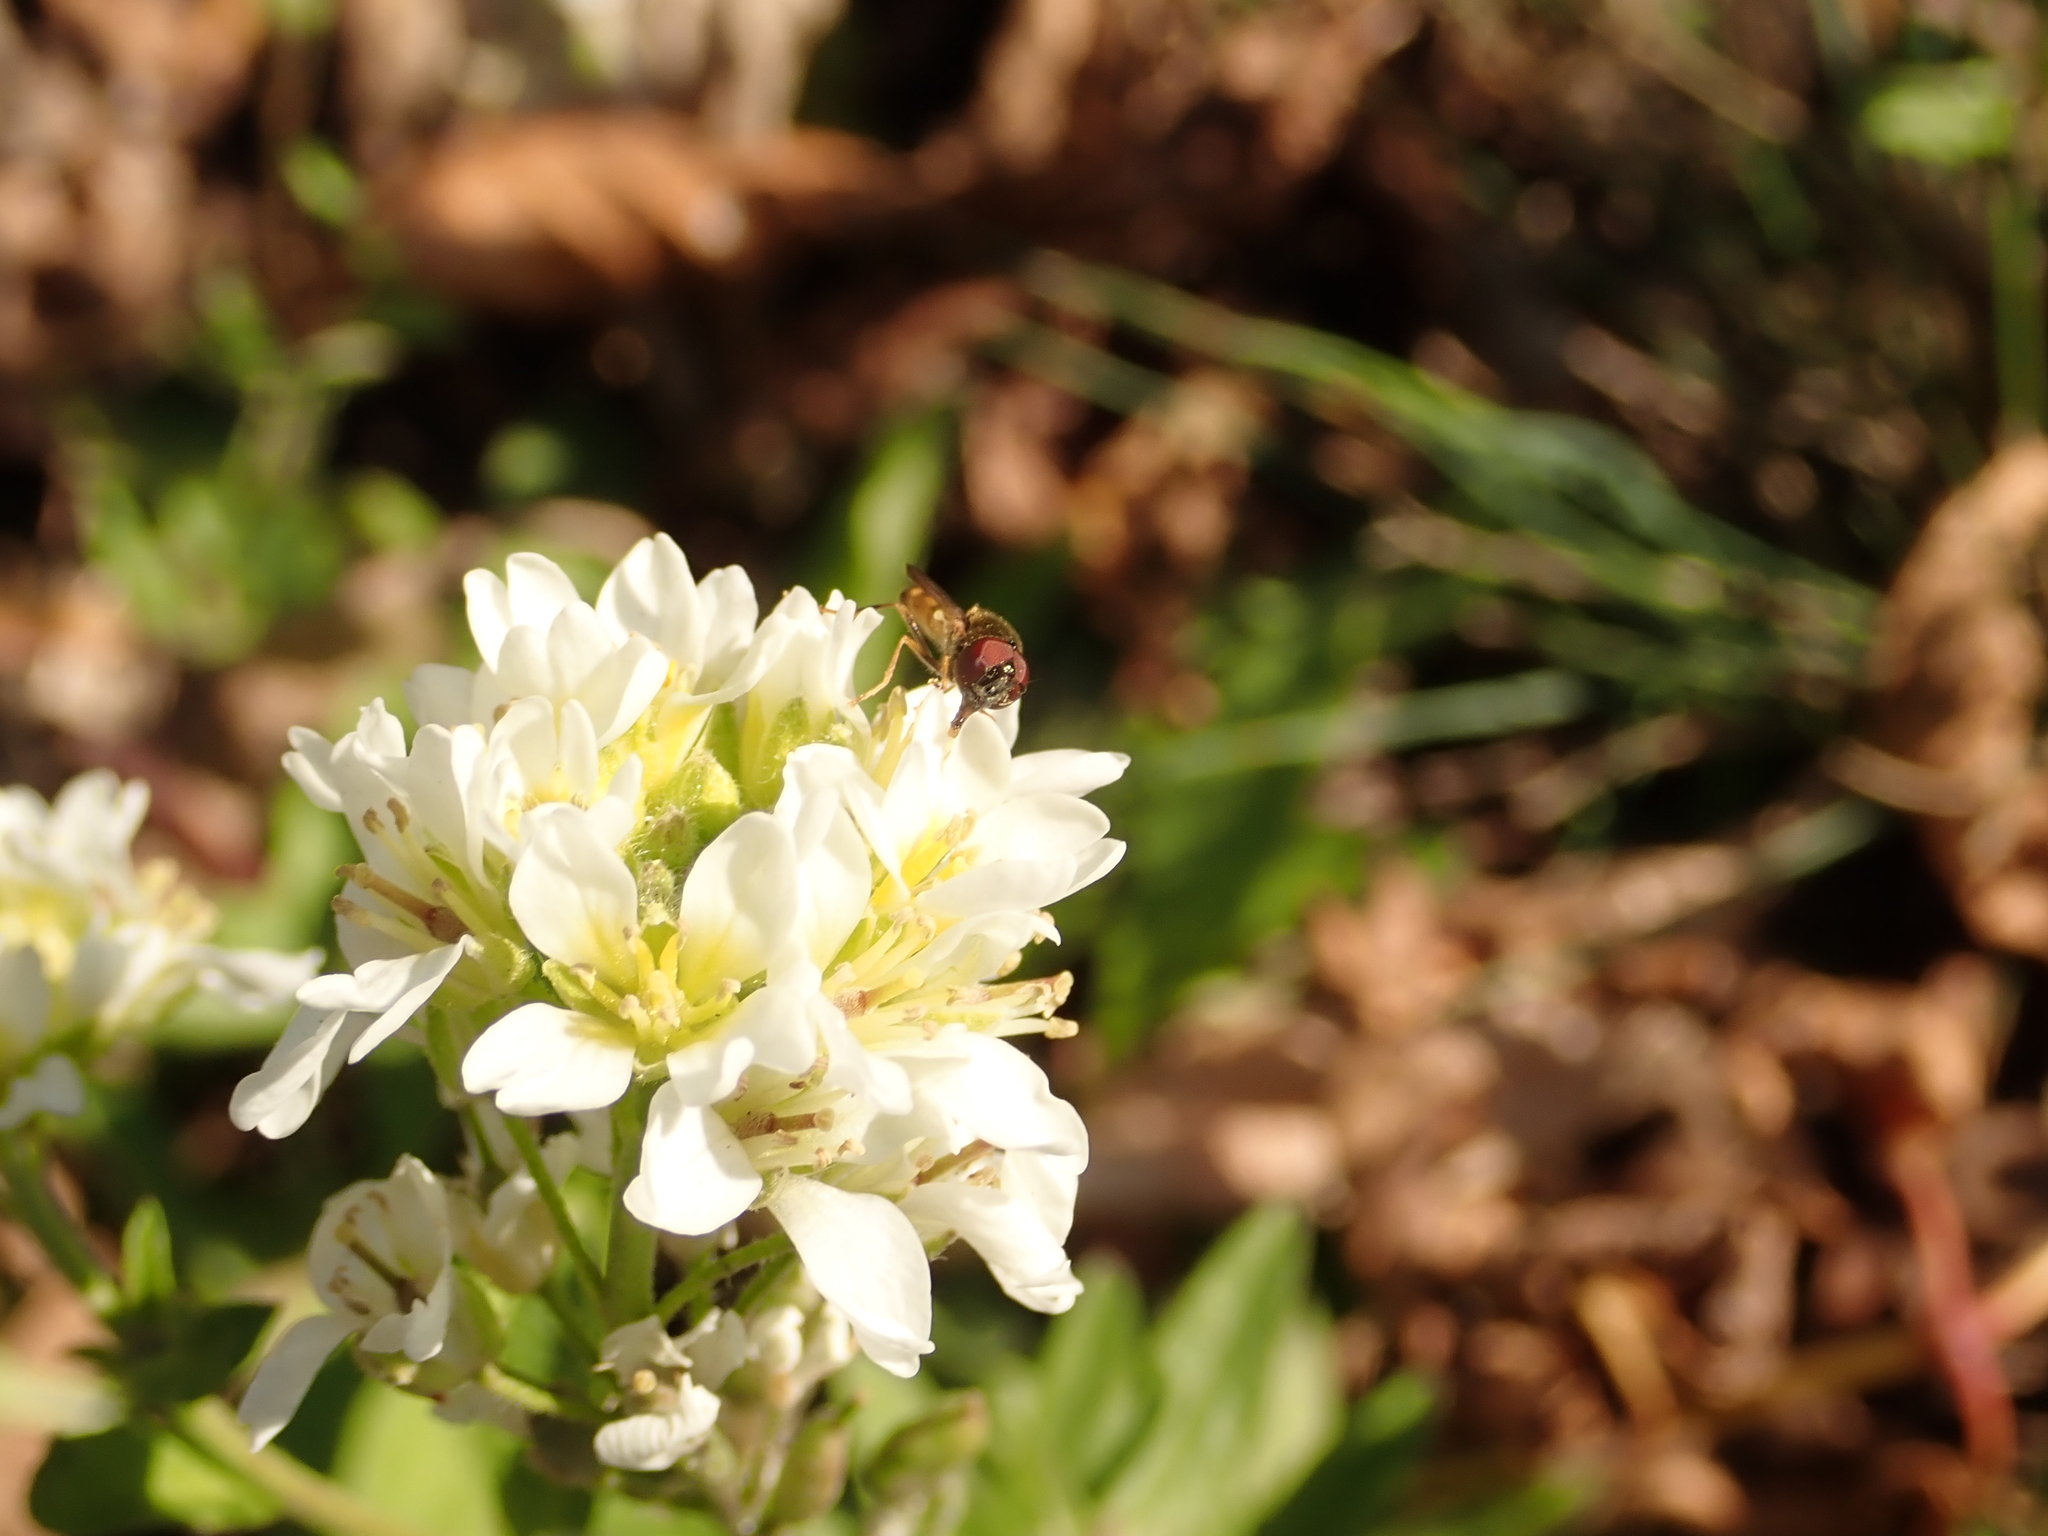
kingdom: Plantae
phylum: Tracheophyta
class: Magnoliopsida
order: Brassicales
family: Brassicaceae
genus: Berteroa
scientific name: Berteroa incana
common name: Hoary alison
